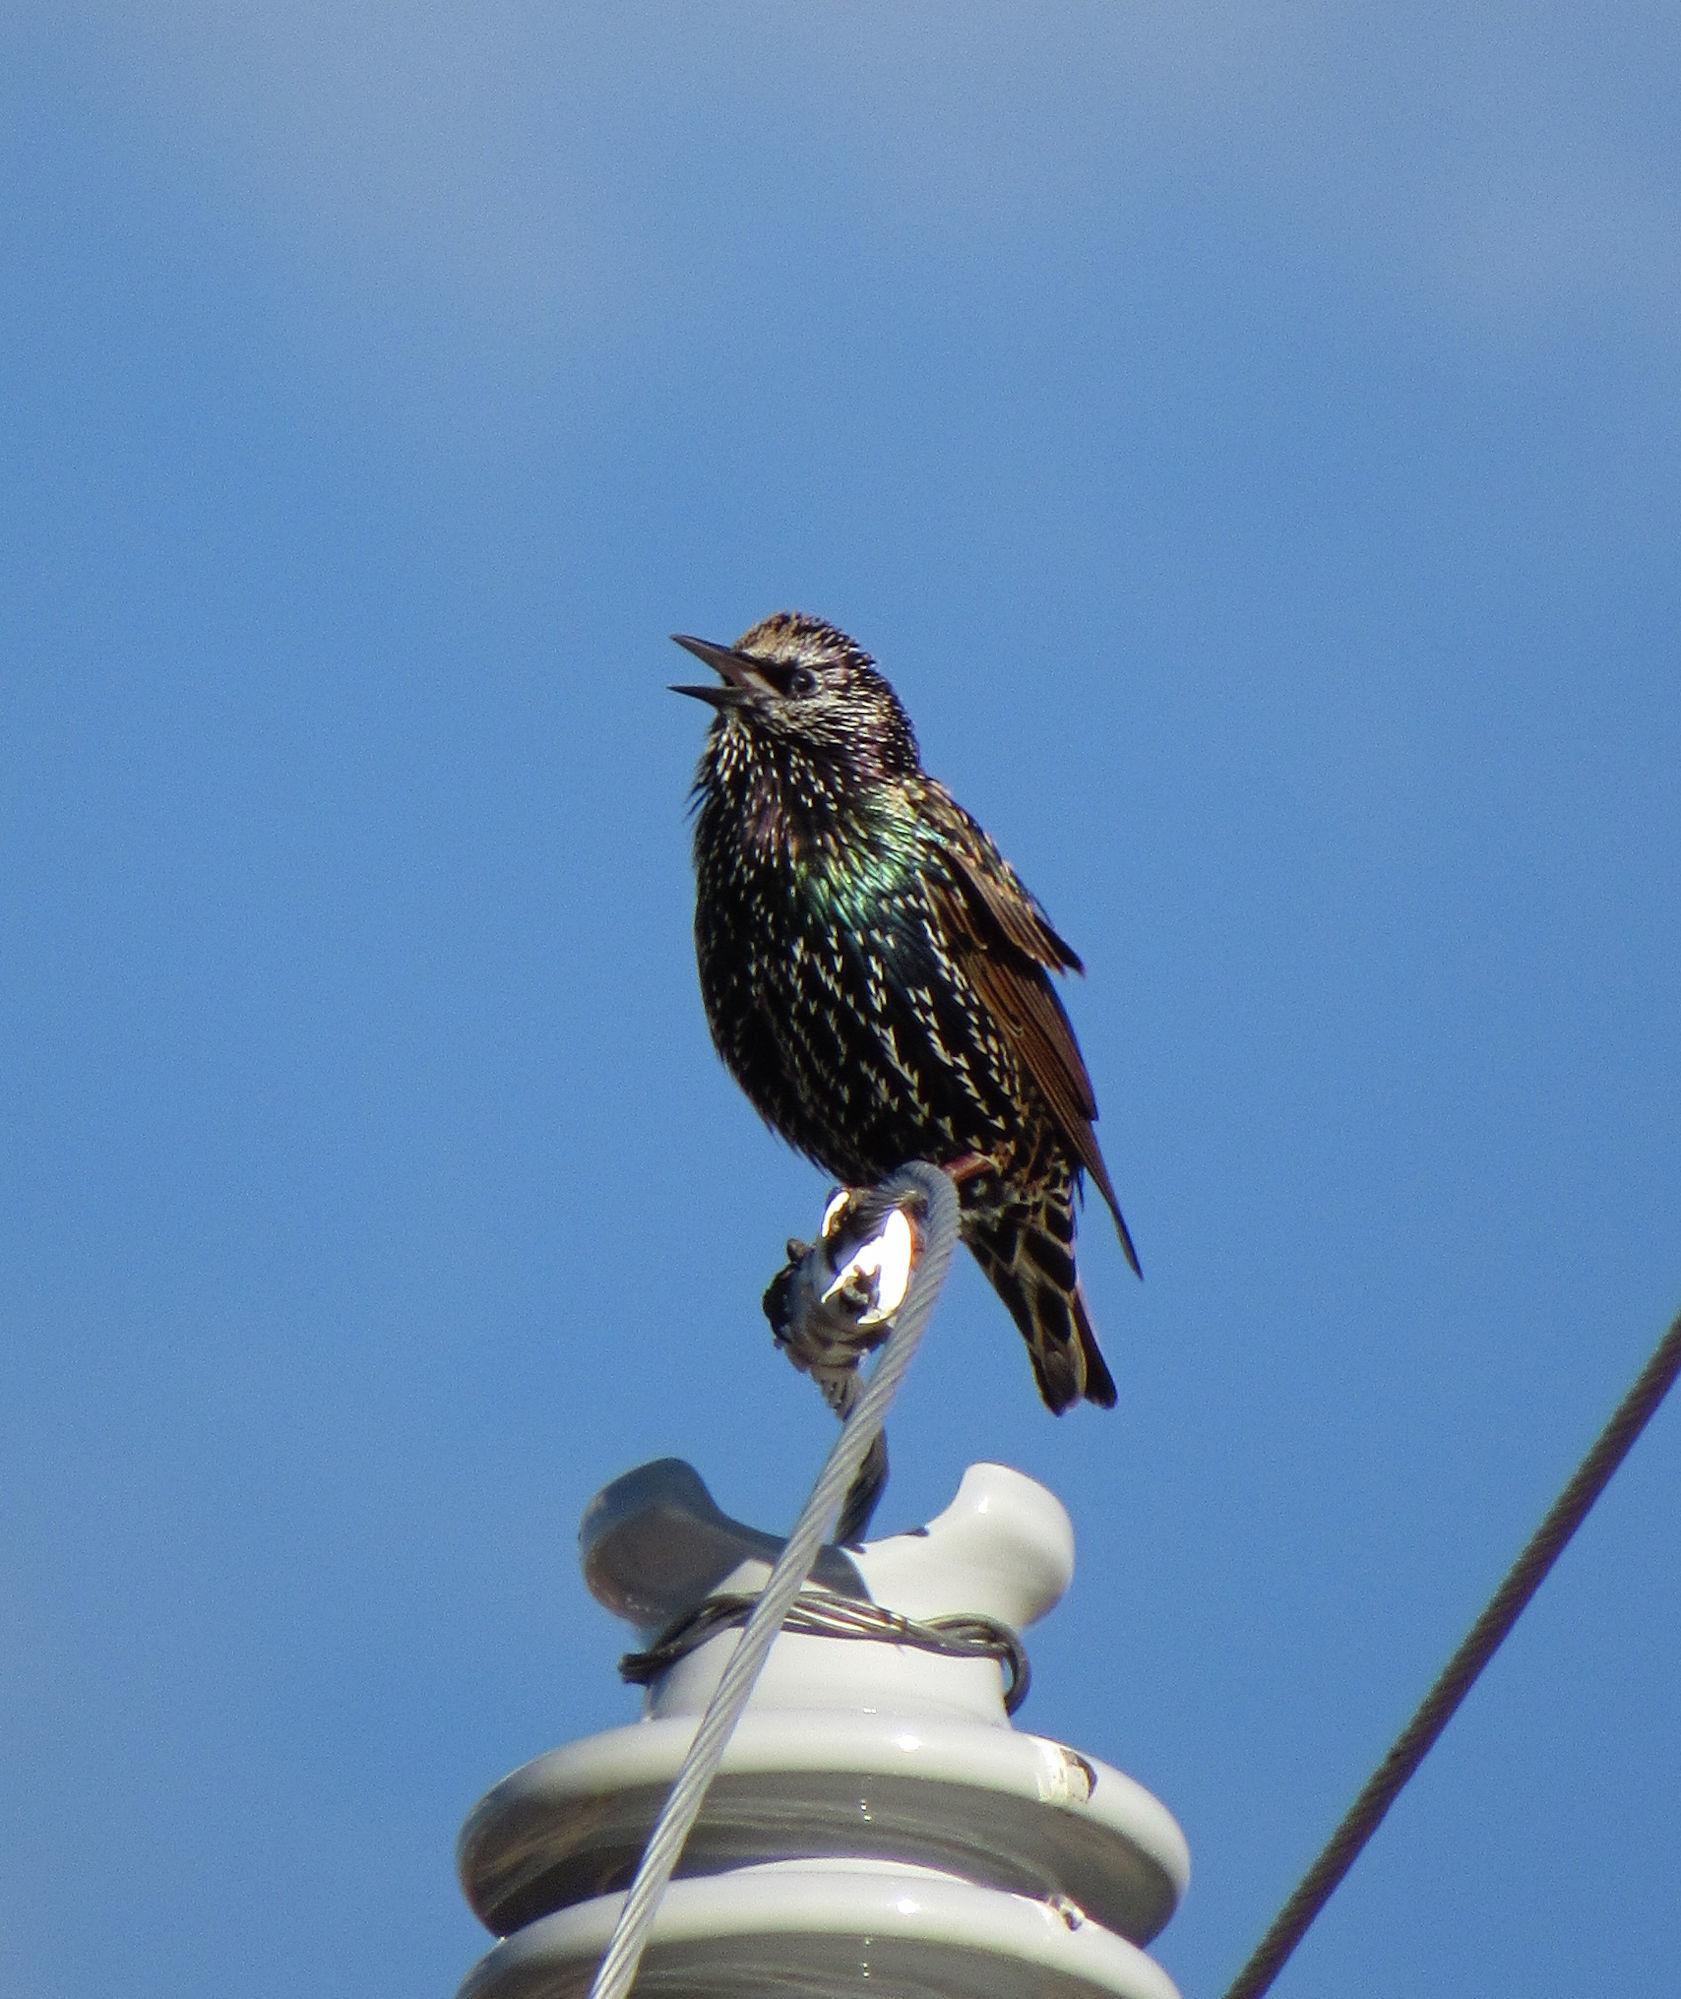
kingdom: Animalia
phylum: Chordata
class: Aves
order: Passeriformes
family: Sturnidae
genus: Sturnus
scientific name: Sturnus vulgaris
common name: Common starling
